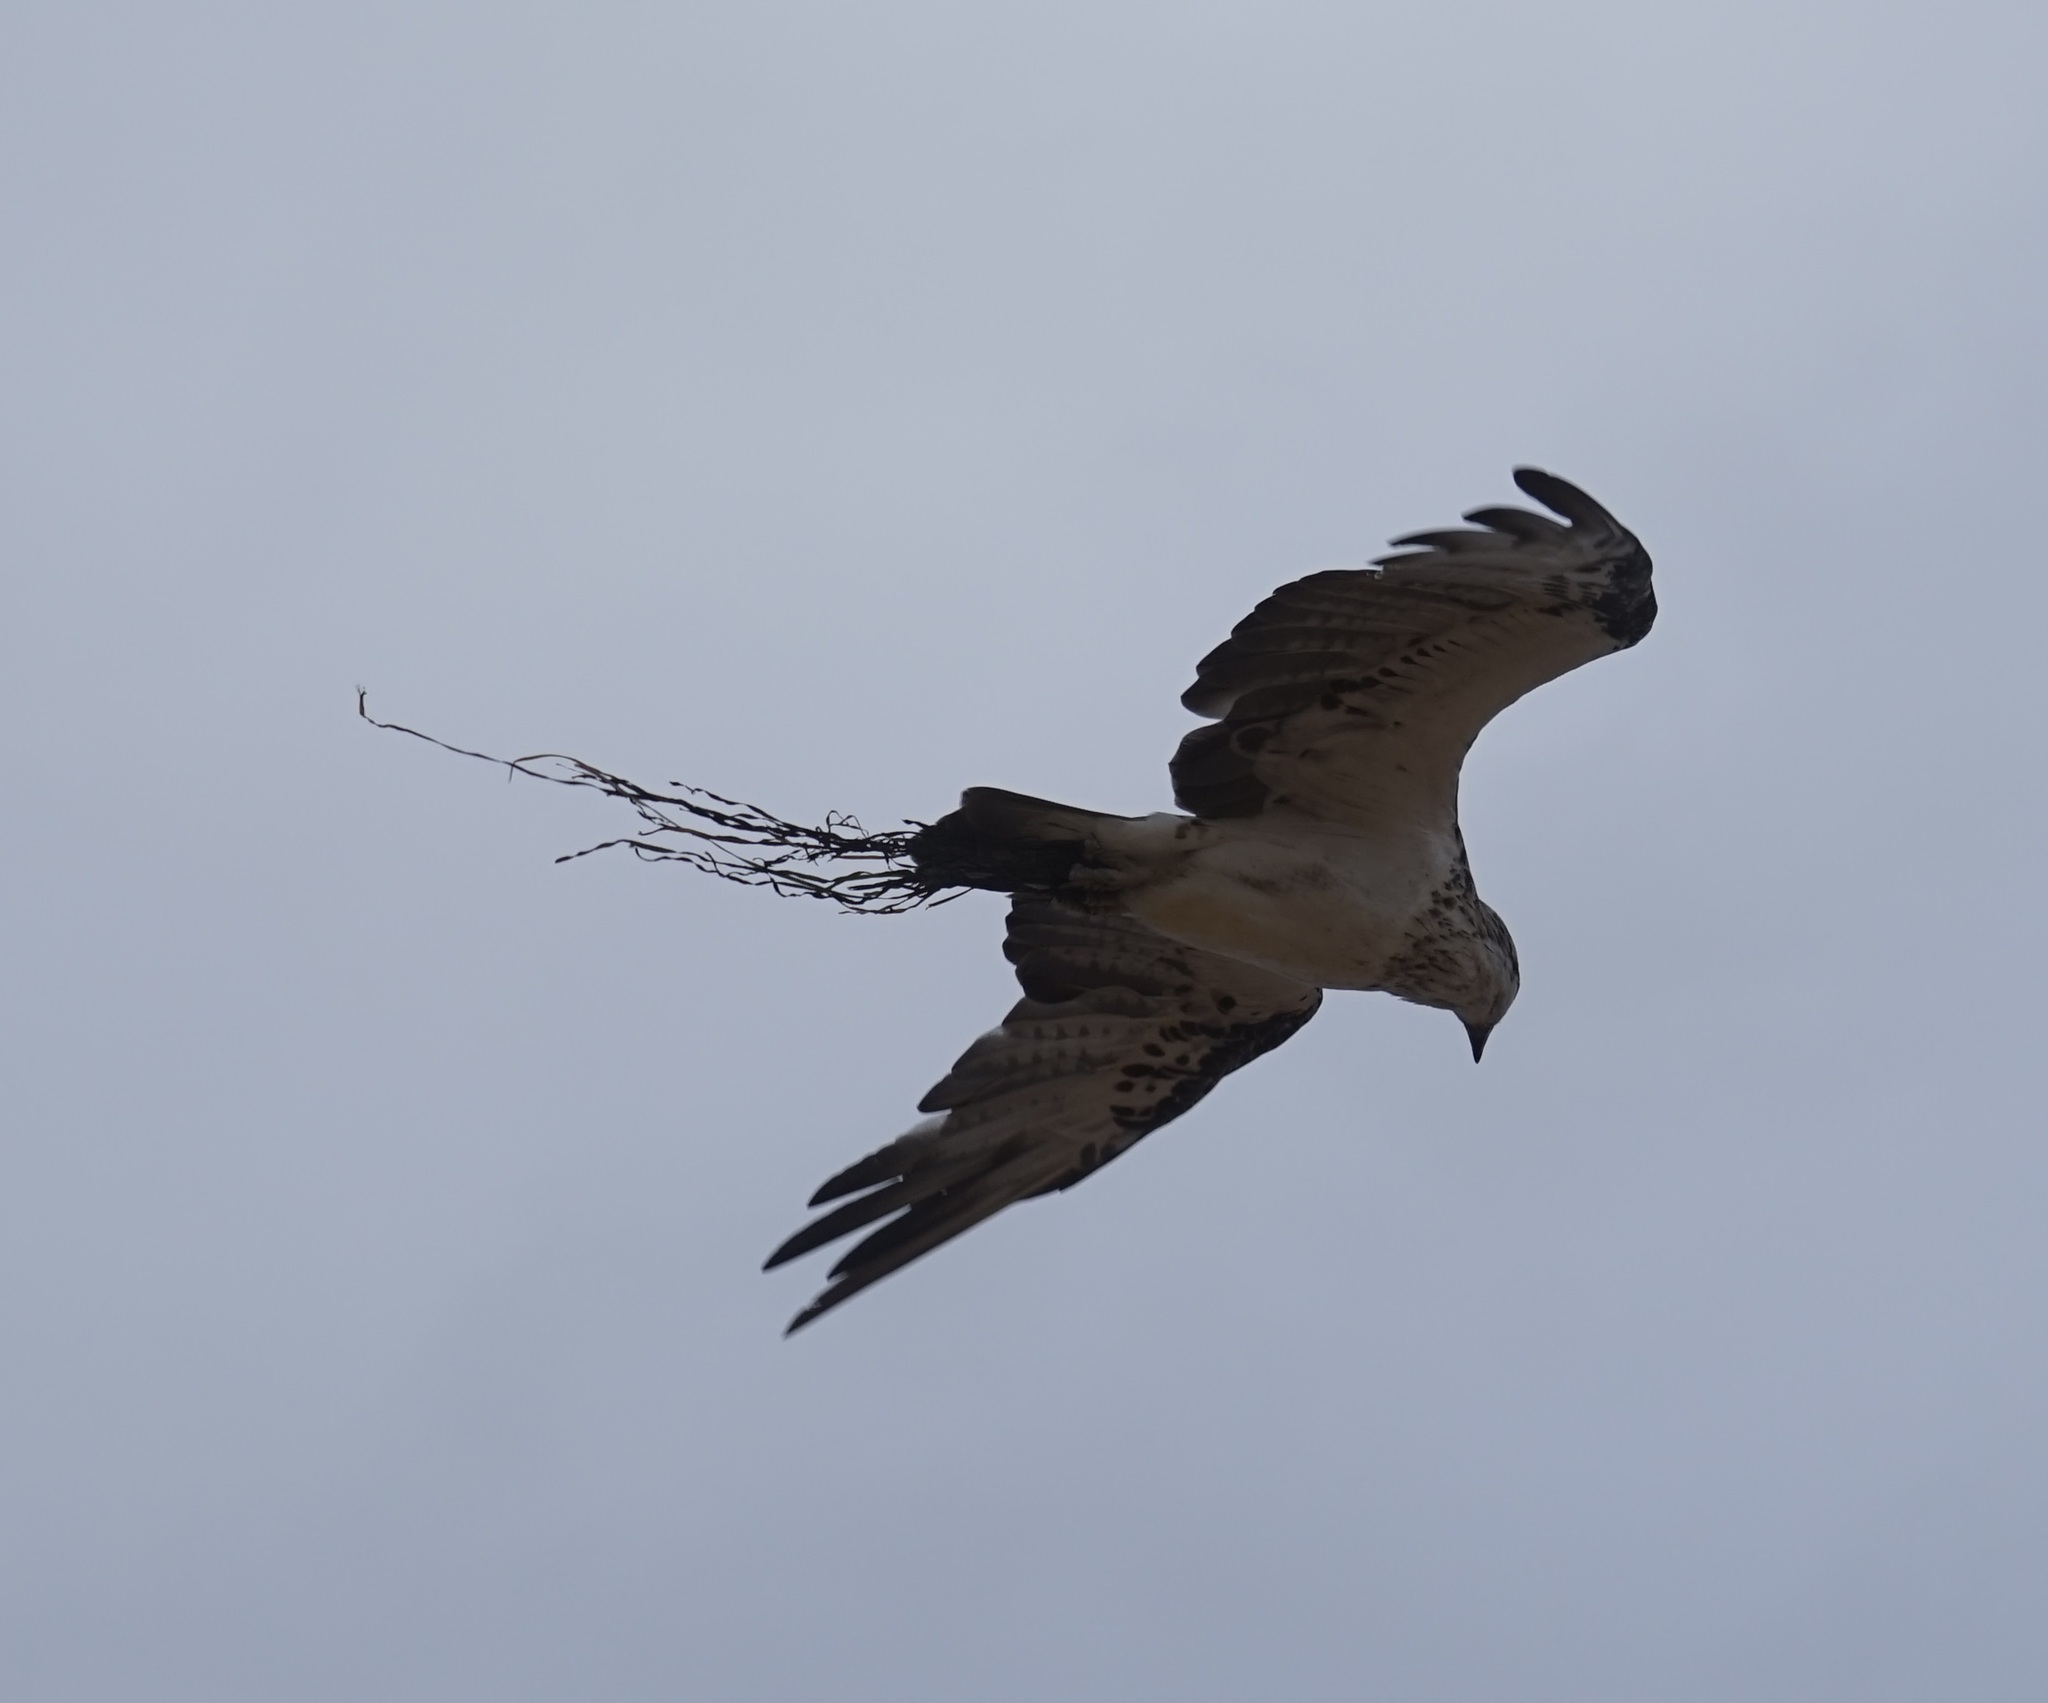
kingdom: Animalia
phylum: Chordata
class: Aves
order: Accipitriformes
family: Pandionidae
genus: Pandion
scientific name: Pandion haliaetus
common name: Osprey
